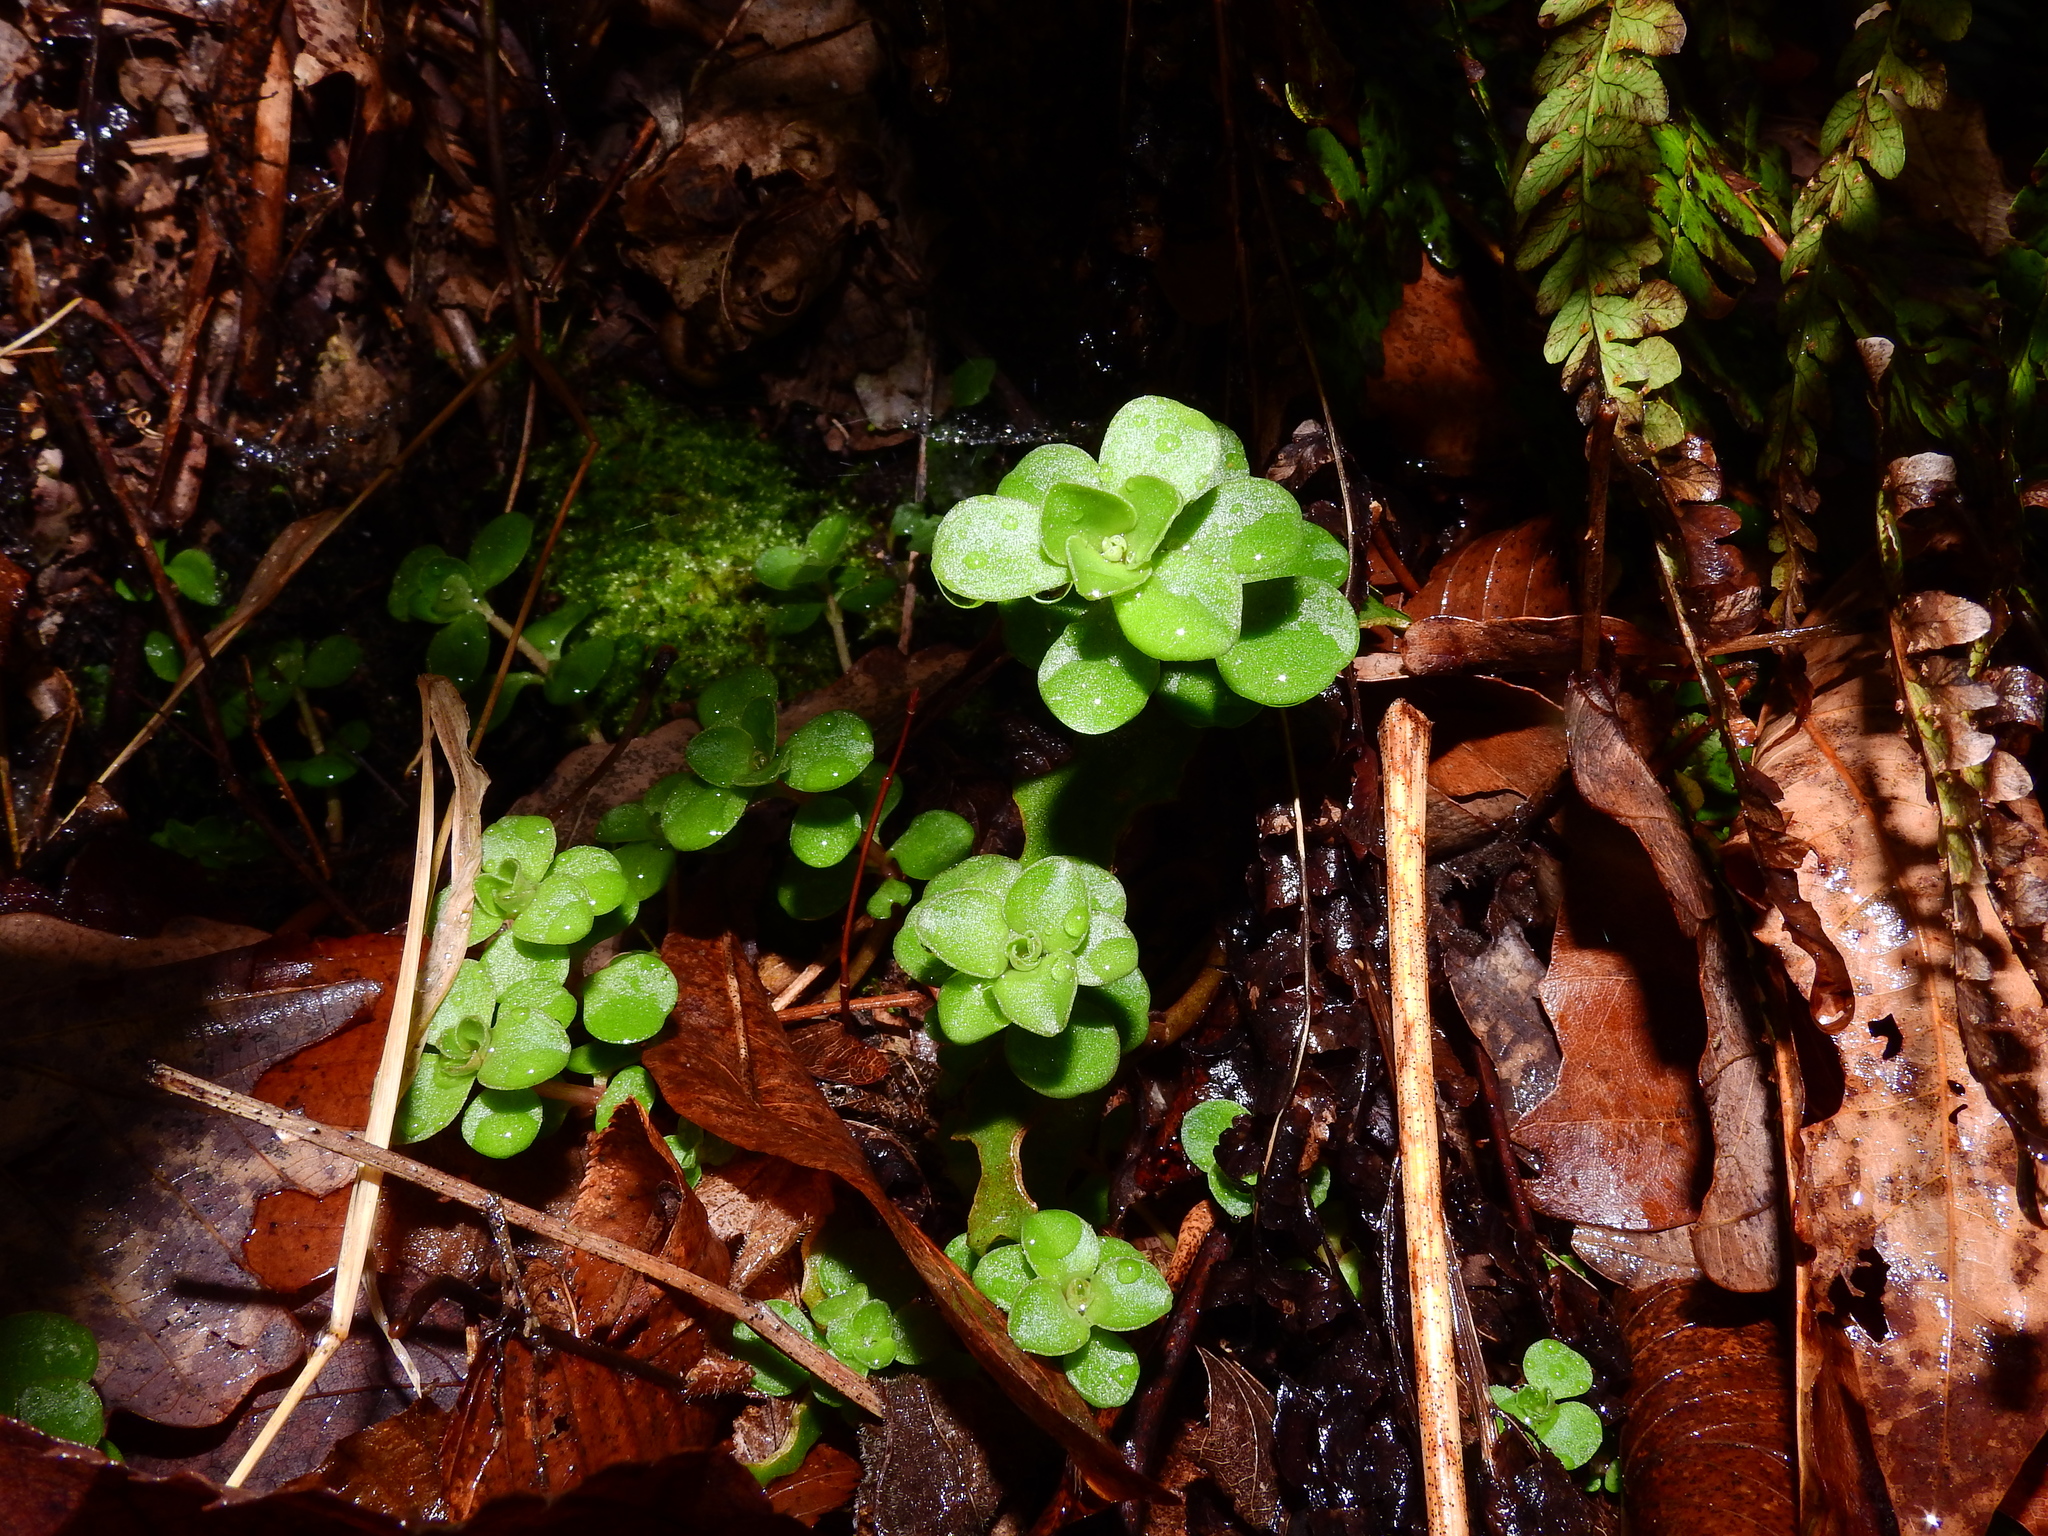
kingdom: Plantae
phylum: Tracheophyta
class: Magnoliopsida
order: Saxifragales
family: Crassulaceae
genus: Sedum
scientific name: Sedum ternatum
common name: Wild stonecrop
